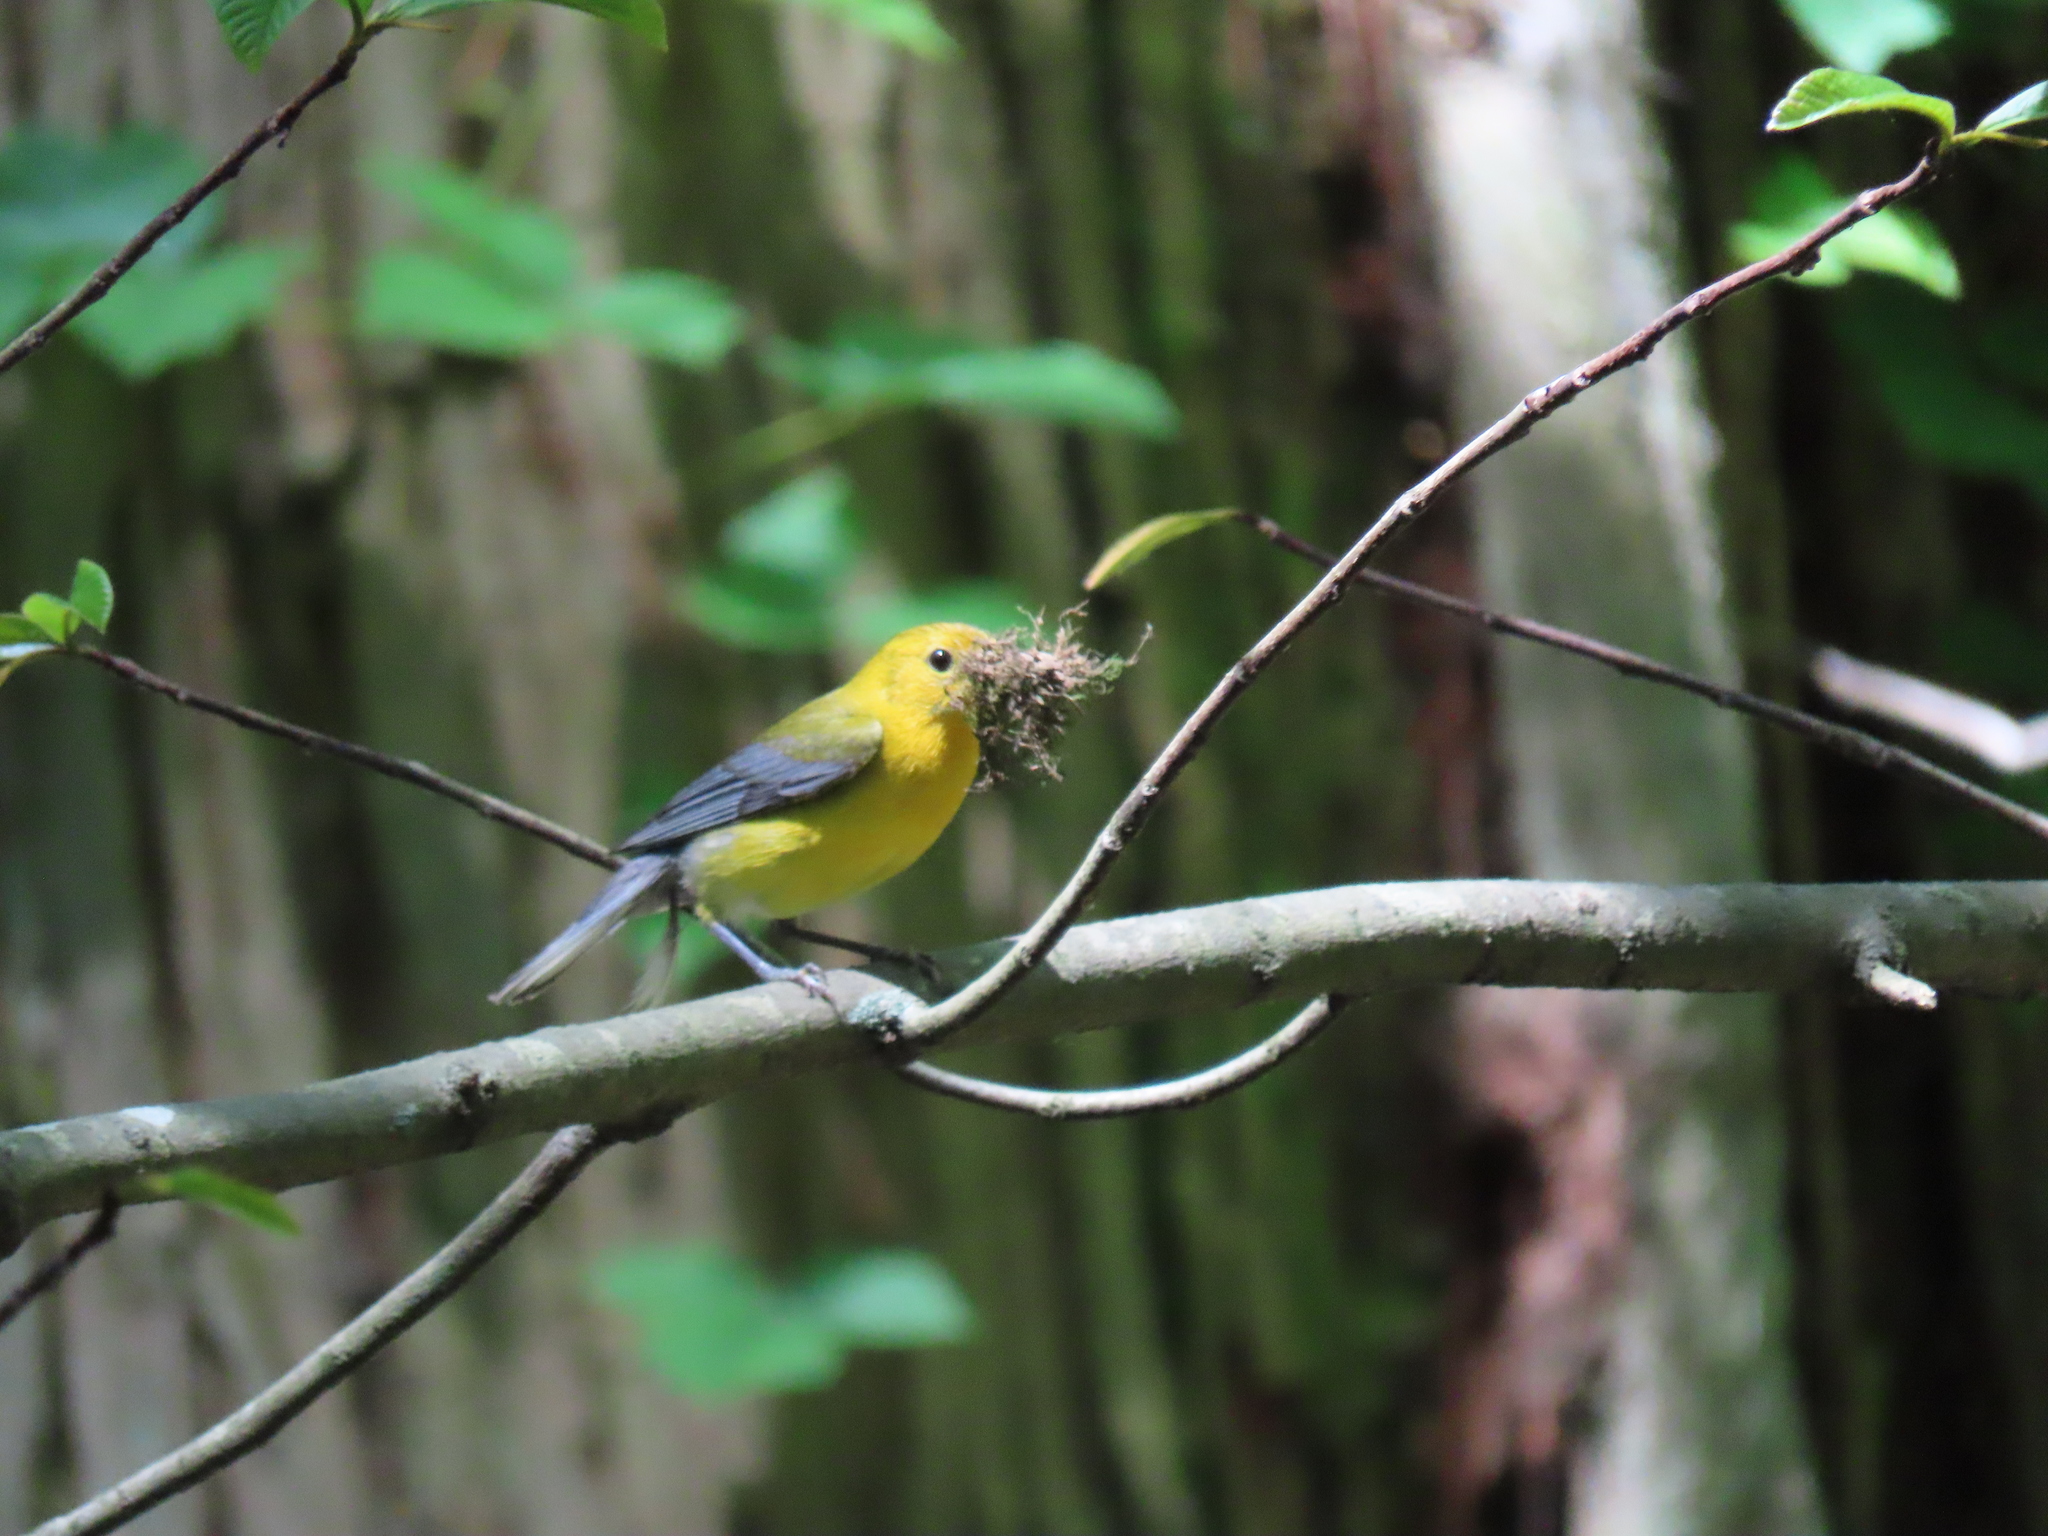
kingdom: Animalia
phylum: Chordata
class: Aves
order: Passeriformes
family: Parulidae
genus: Protonotaria
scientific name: Protonotaria citrea
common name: Prothonotary warbler
